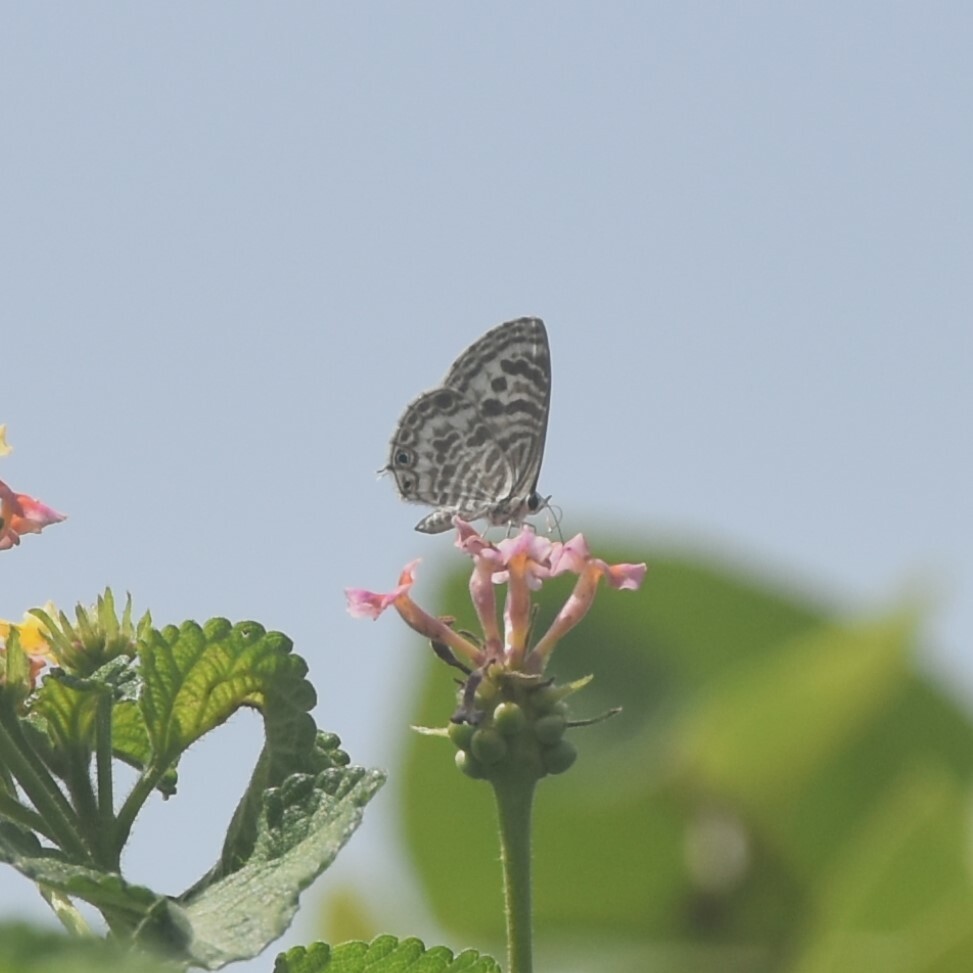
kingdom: Animalia
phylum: Arthropoda
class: Insecta
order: Lepidoptera
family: Lycaenidae
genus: Leptotes
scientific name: Leptotes plinius
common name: Zebra blue
